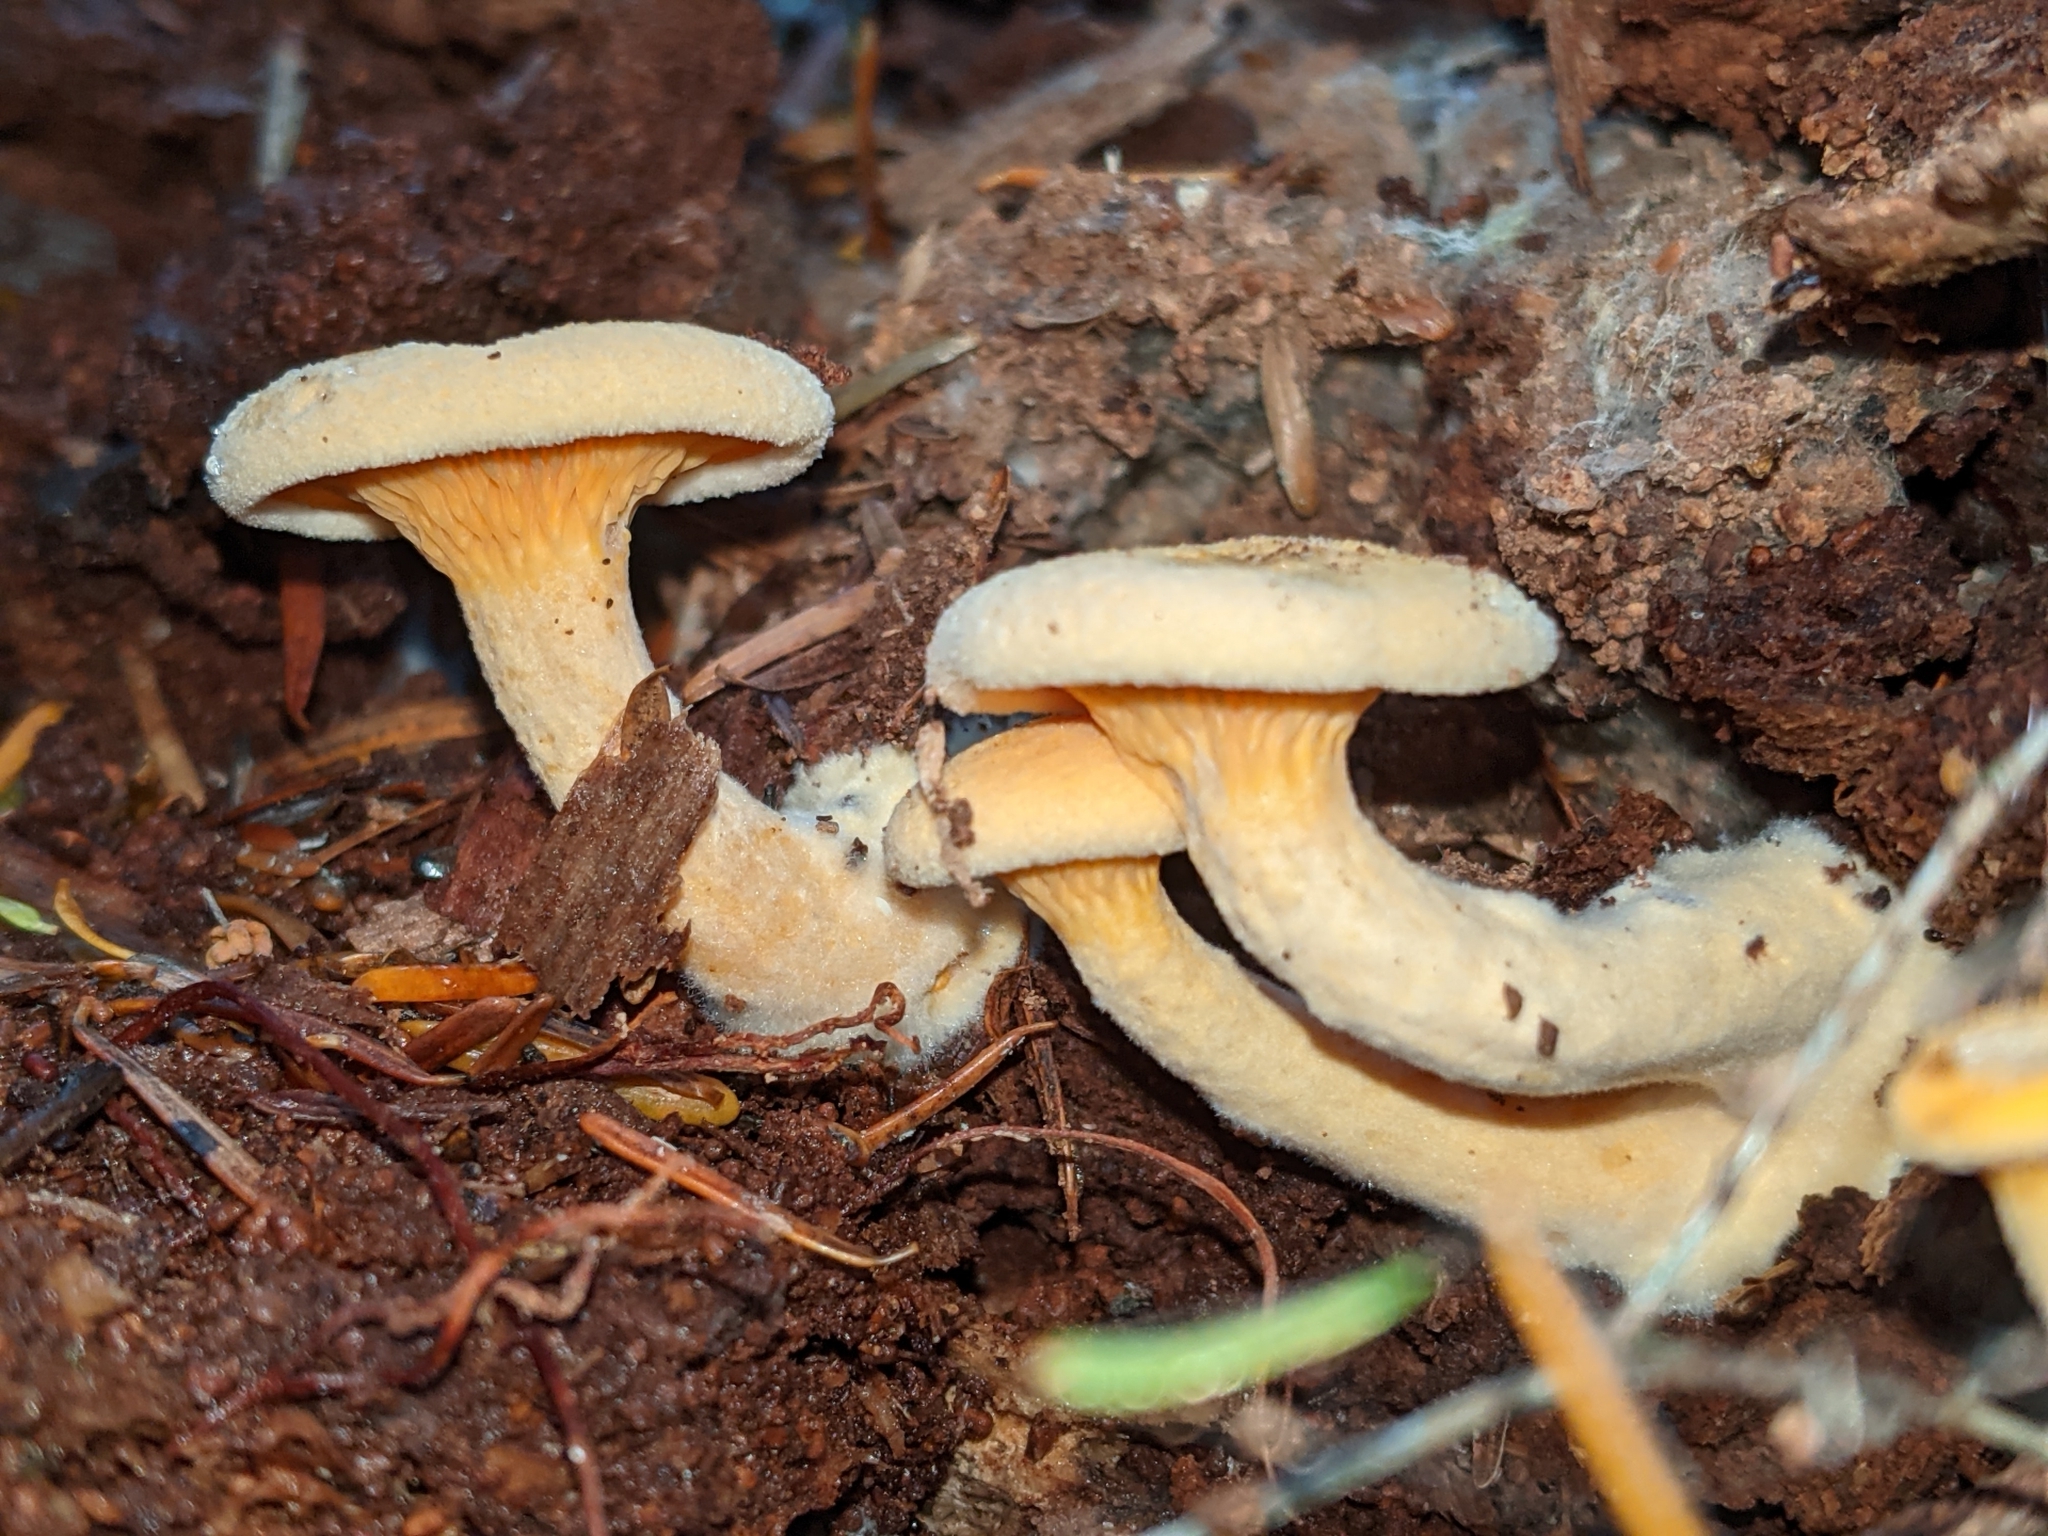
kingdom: Fungi
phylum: Basidiomycota
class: Agaricomycetes
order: Boletales
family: Hygrophoropsidaceae
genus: Hygrophoropsis
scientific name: Hygrophoropsis aurantiaca
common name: False chanterelle
